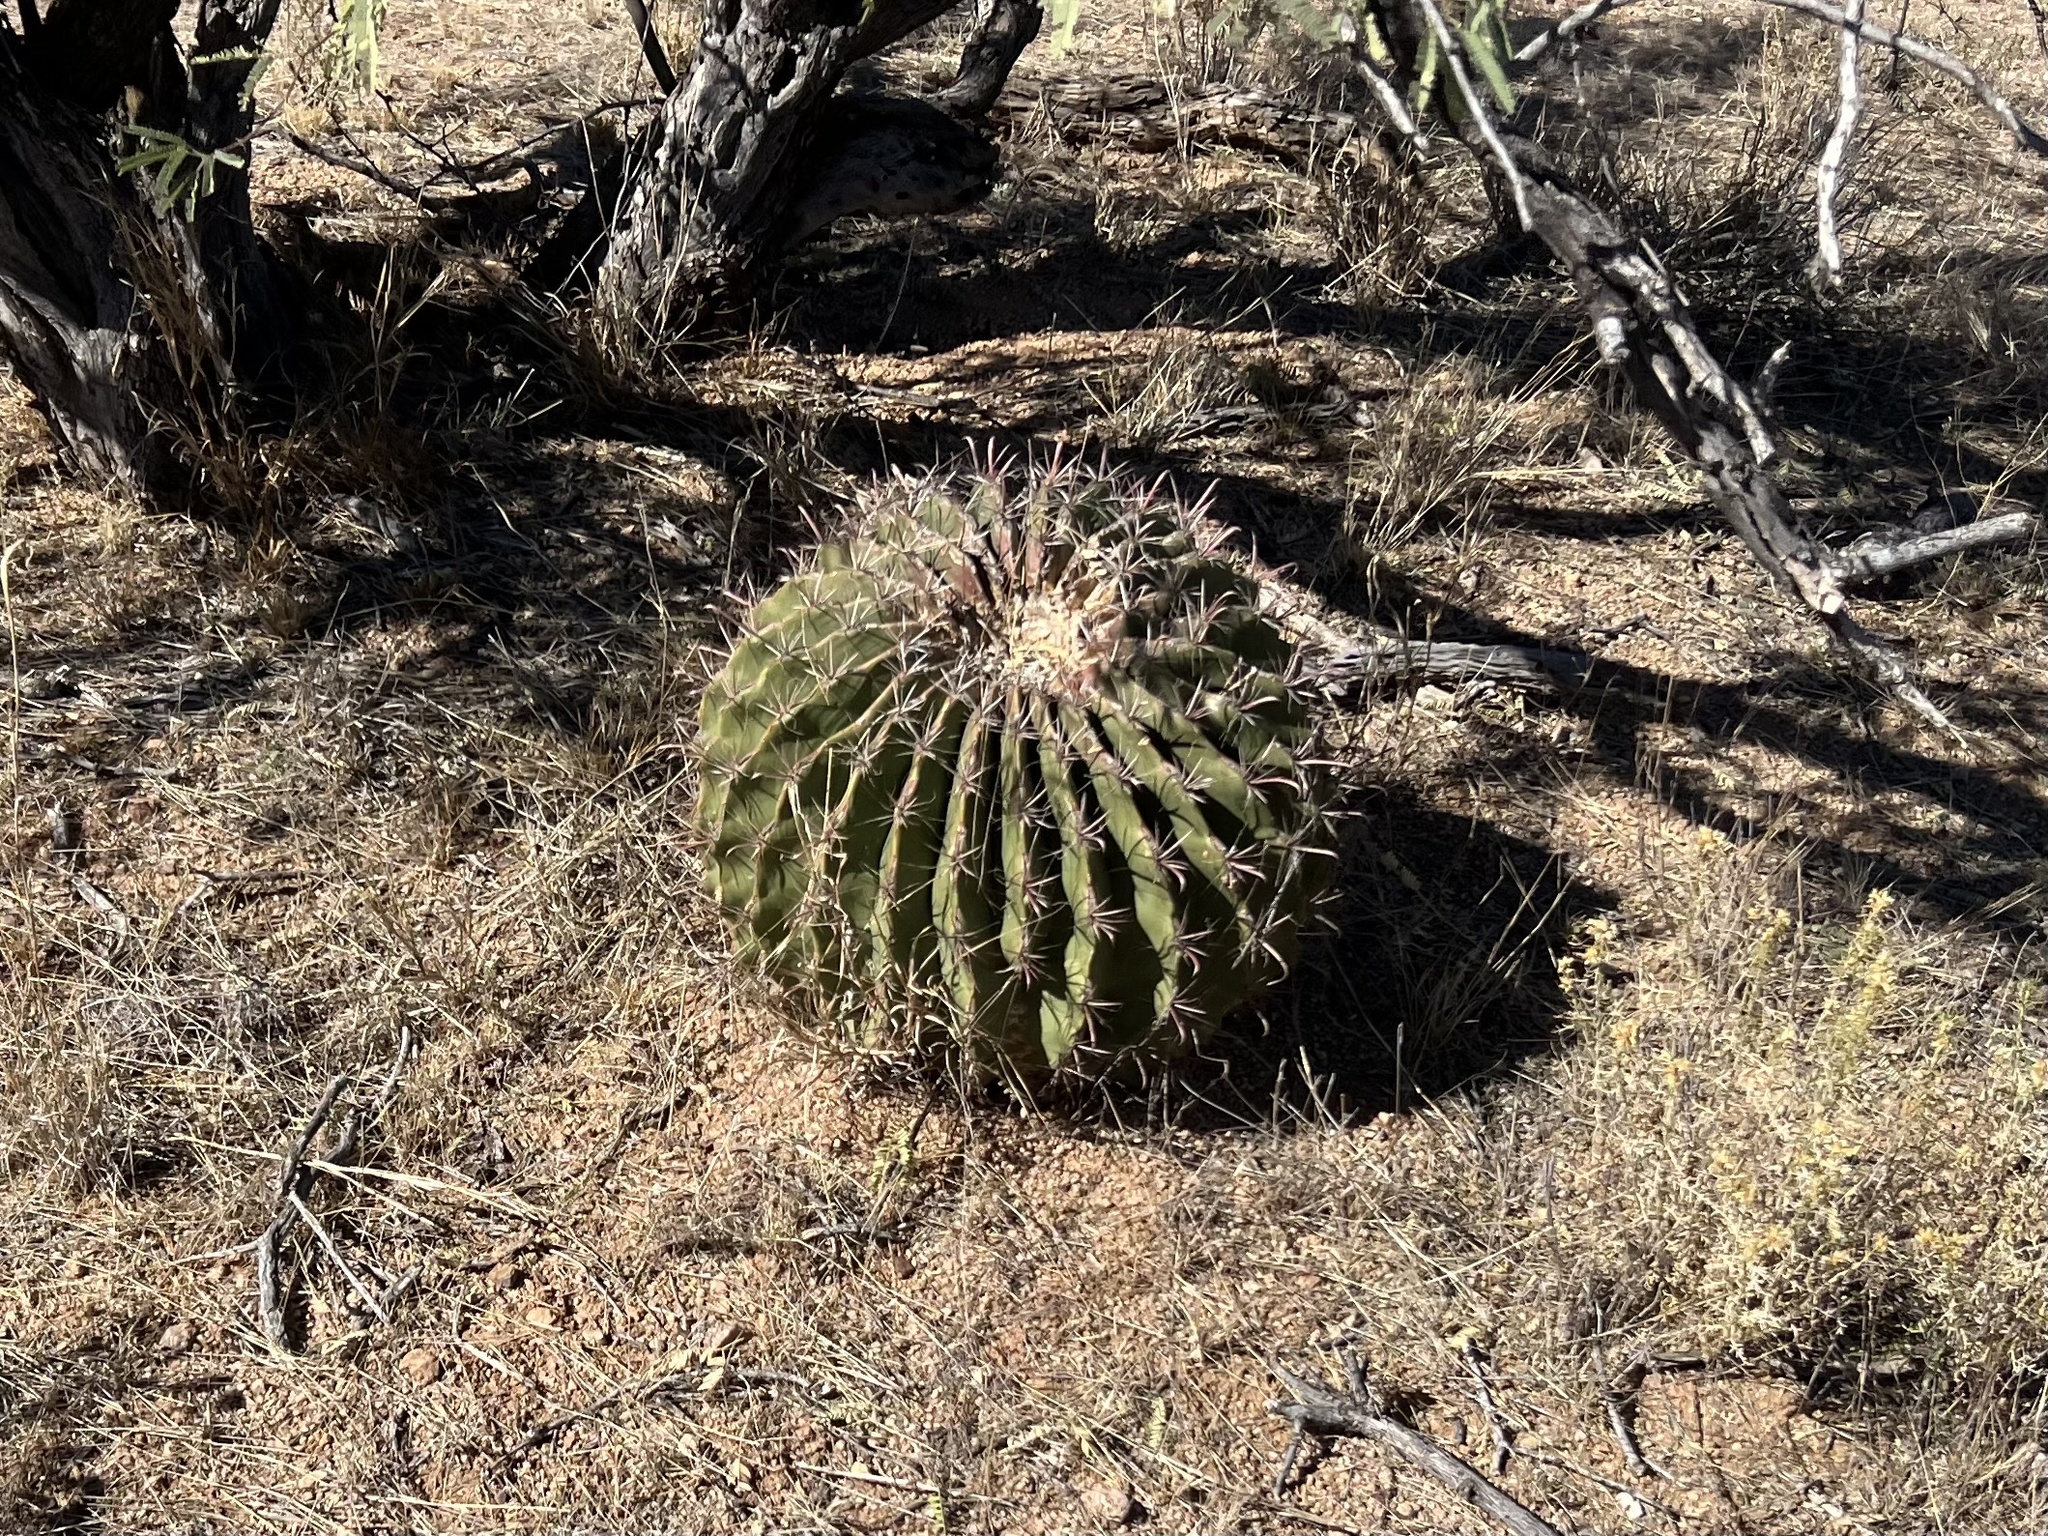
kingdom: Plantae
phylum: Tracheophyta
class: Magnoliopsida
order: Caryophyllales
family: Cactaceae
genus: Ferocactus
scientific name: Ferocactus wislizeni
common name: Candy barrel cactus
